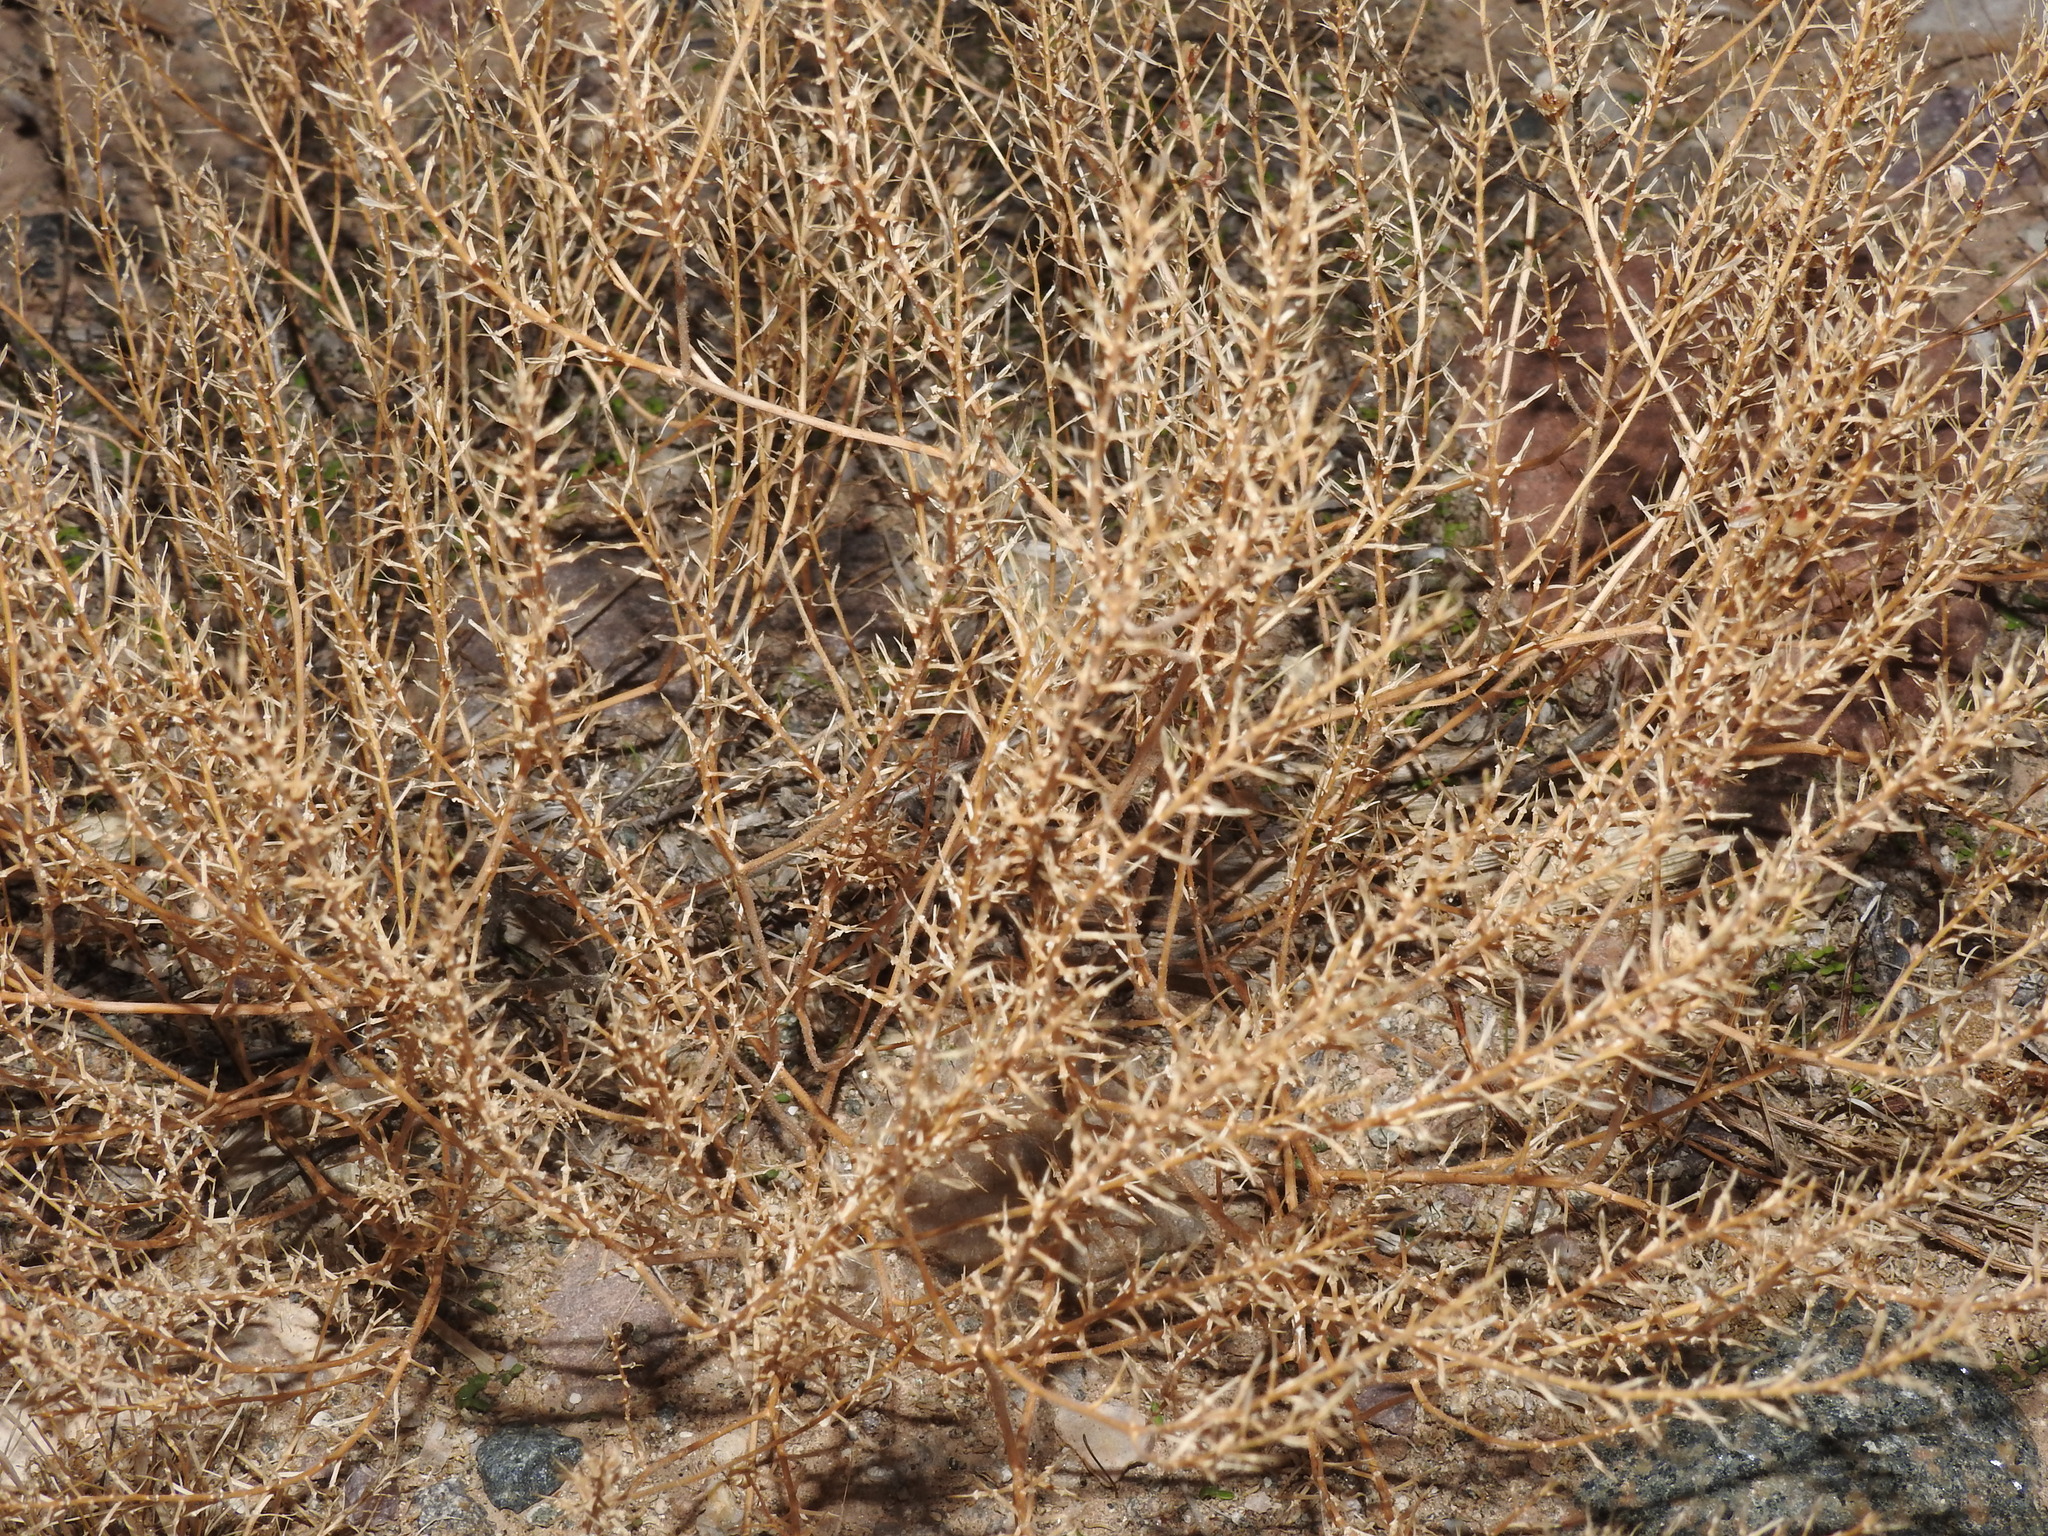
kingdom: Plantae
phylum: Tracheophyta
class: Magnoliopsida
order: Brassicales
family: Brassicaceae
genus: Lepidium
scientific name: Lepidium lasiocarpum
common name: Hairy-pod pepperwort
